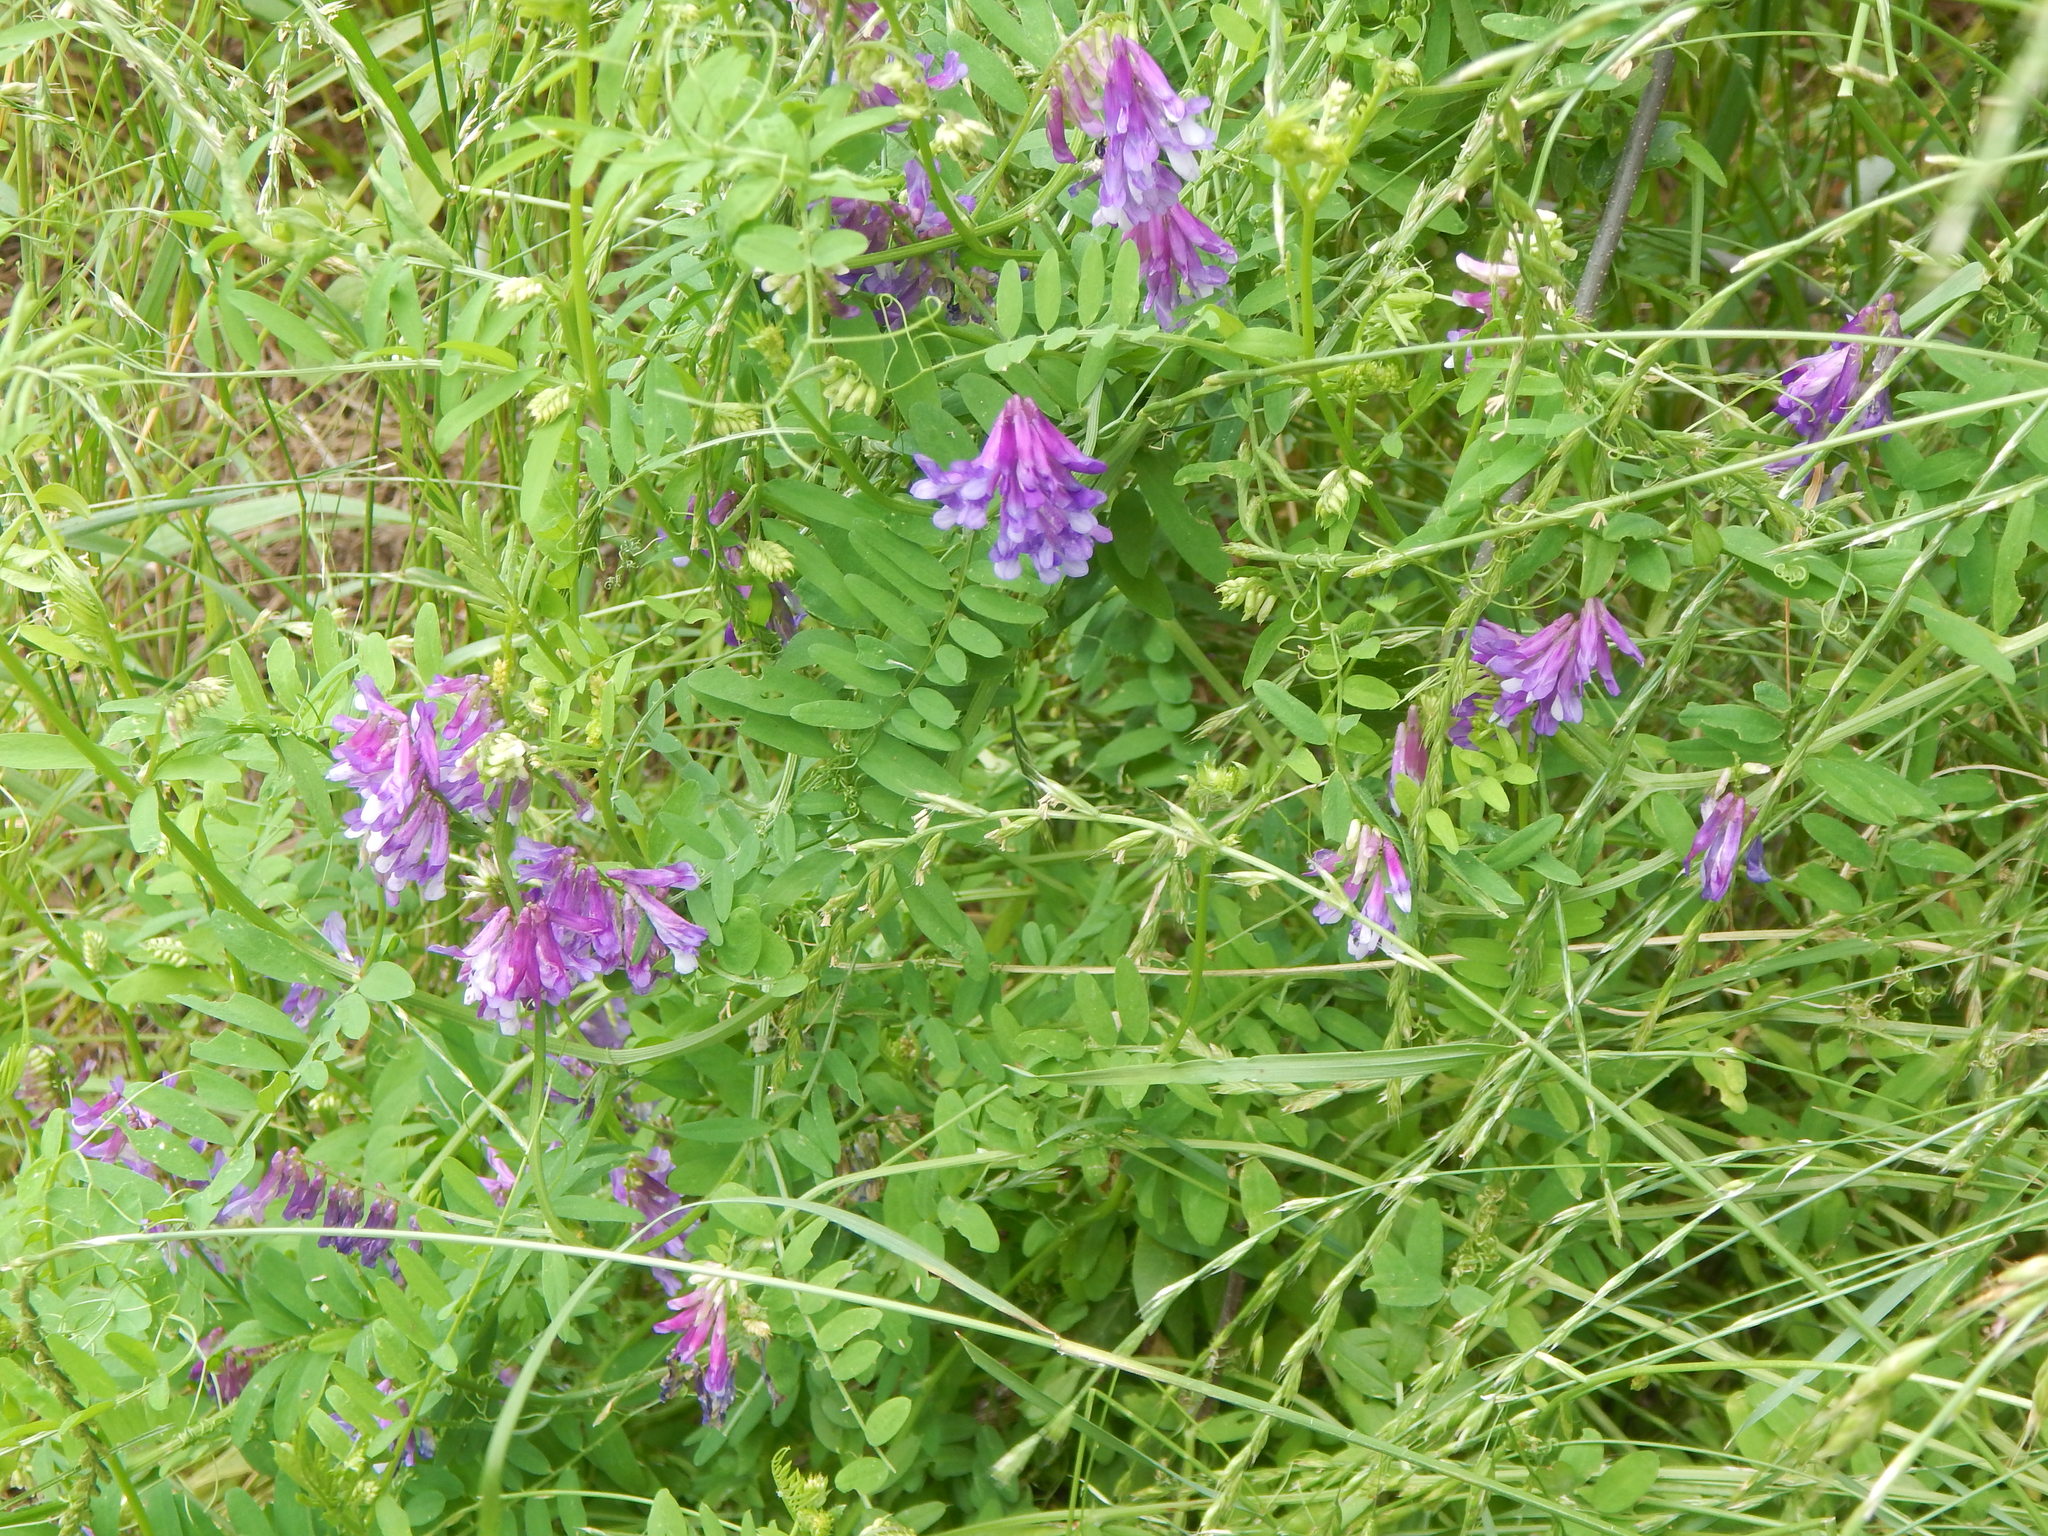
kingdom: Plantae
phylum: Tracheophyta
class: Magnoliopsida
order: Fabales
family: Fabaceae
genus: Vicia
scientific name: Vicia villosa
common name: Fodder vetch
